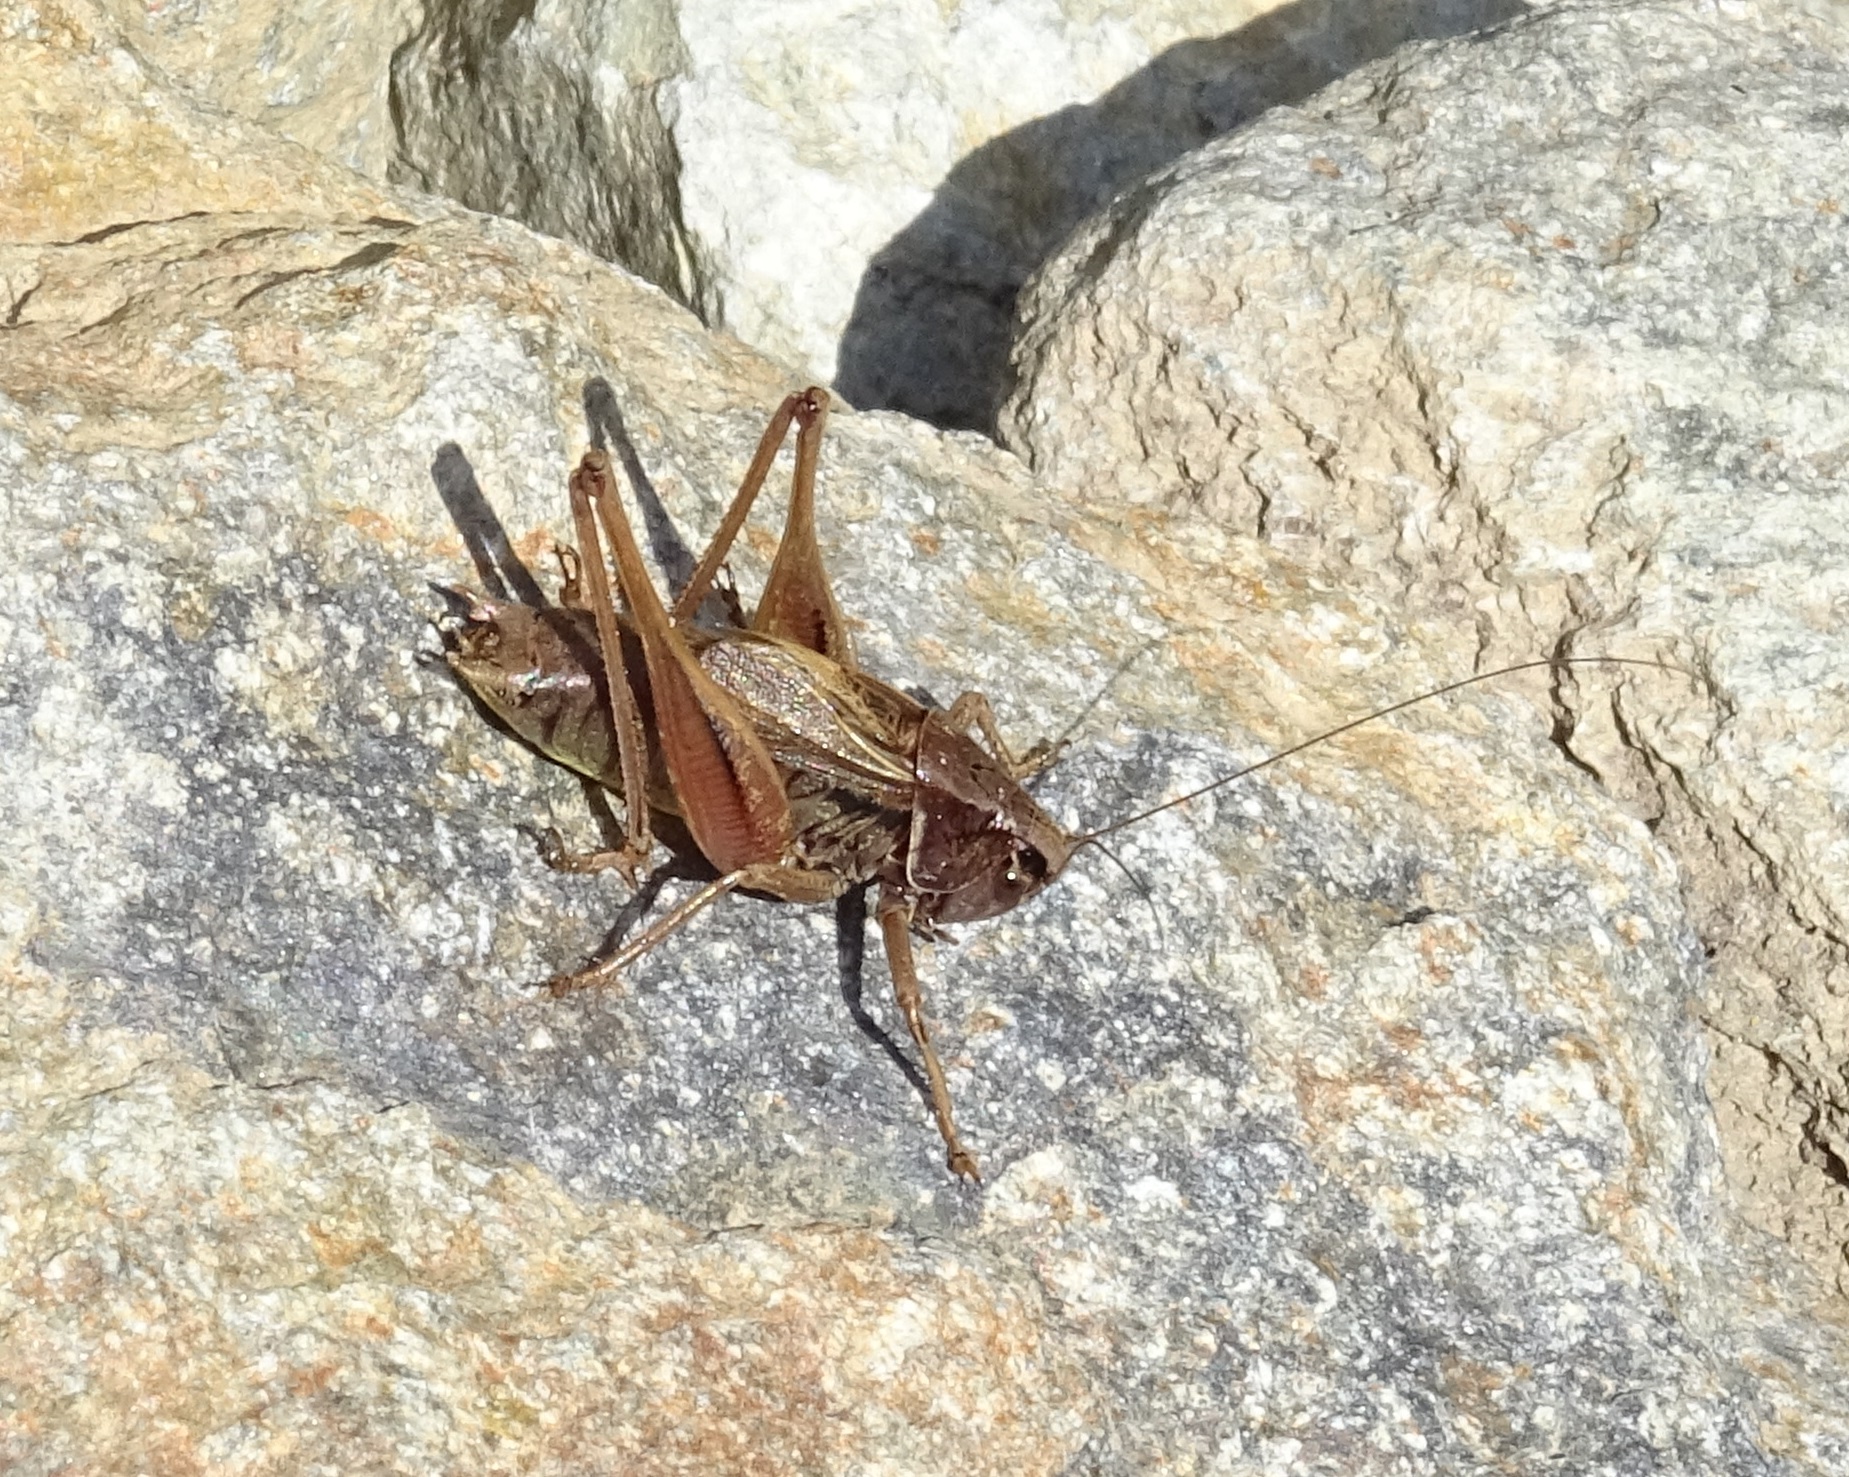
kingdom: Animalia
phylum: Arthropoda
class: Insecta
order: Orthoptera
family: Tettigoniidae
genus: Metrioptera
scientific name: Metrioptera saussuriana
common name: Purple meadow bush-cricket
